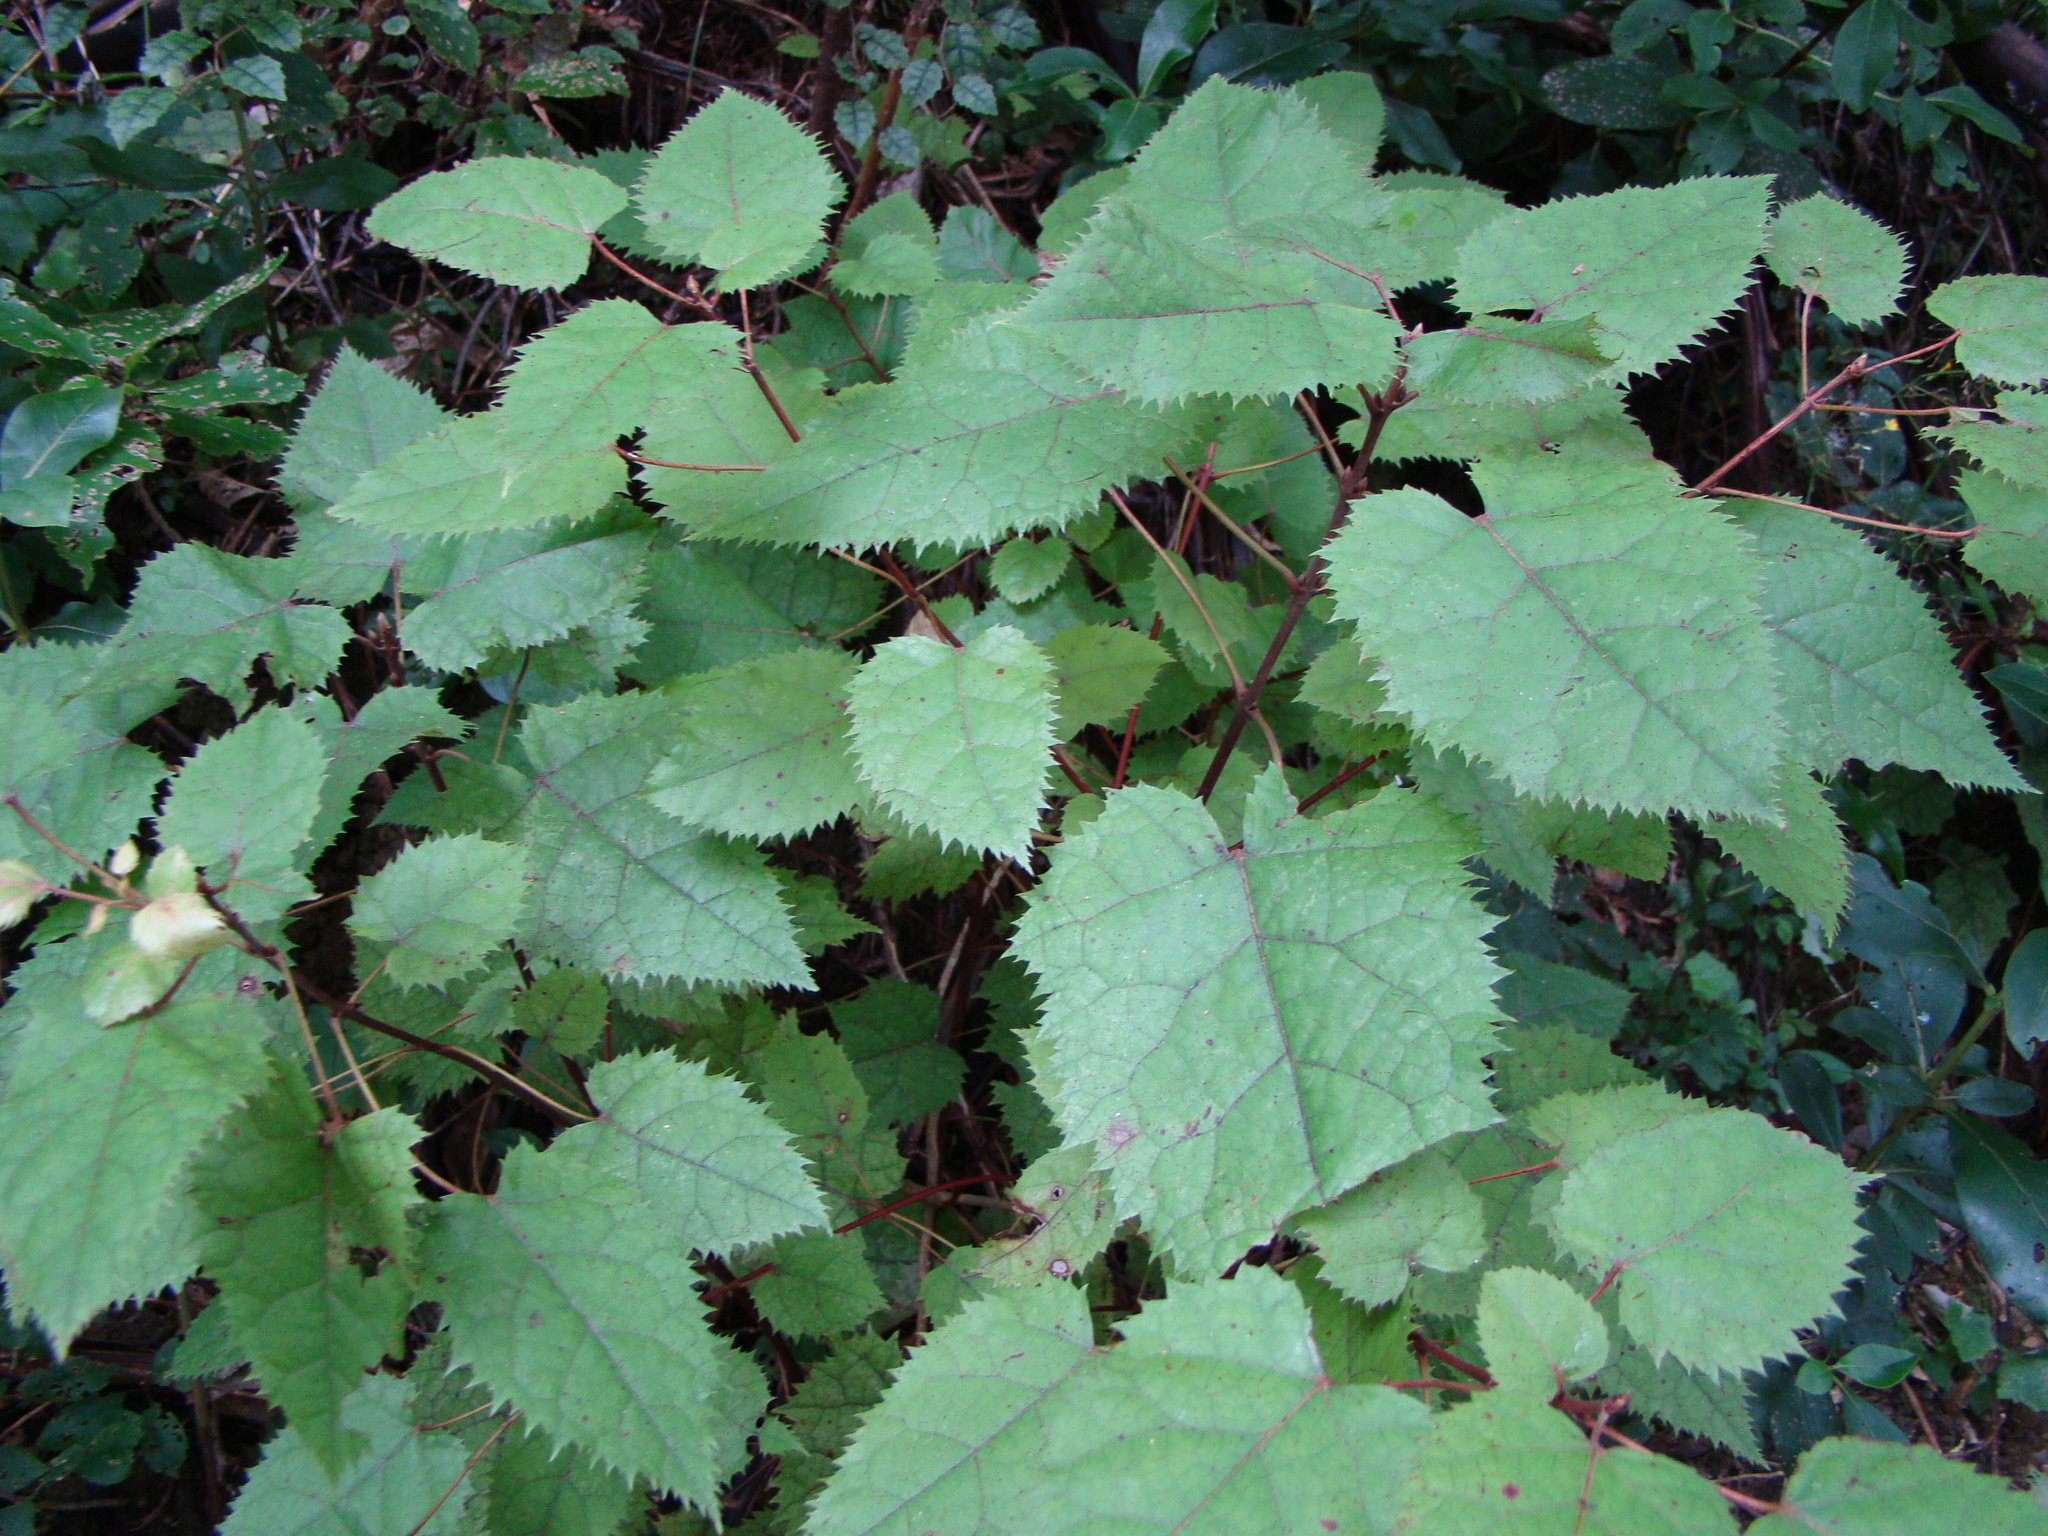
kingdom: Plantae
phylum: Tracheophyta
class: Magnoliopsida
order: Oxalidales
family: Elaeocarpaceae
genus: Aristotelia
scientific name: Aristotelia serrata
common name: New zealand wineberry
